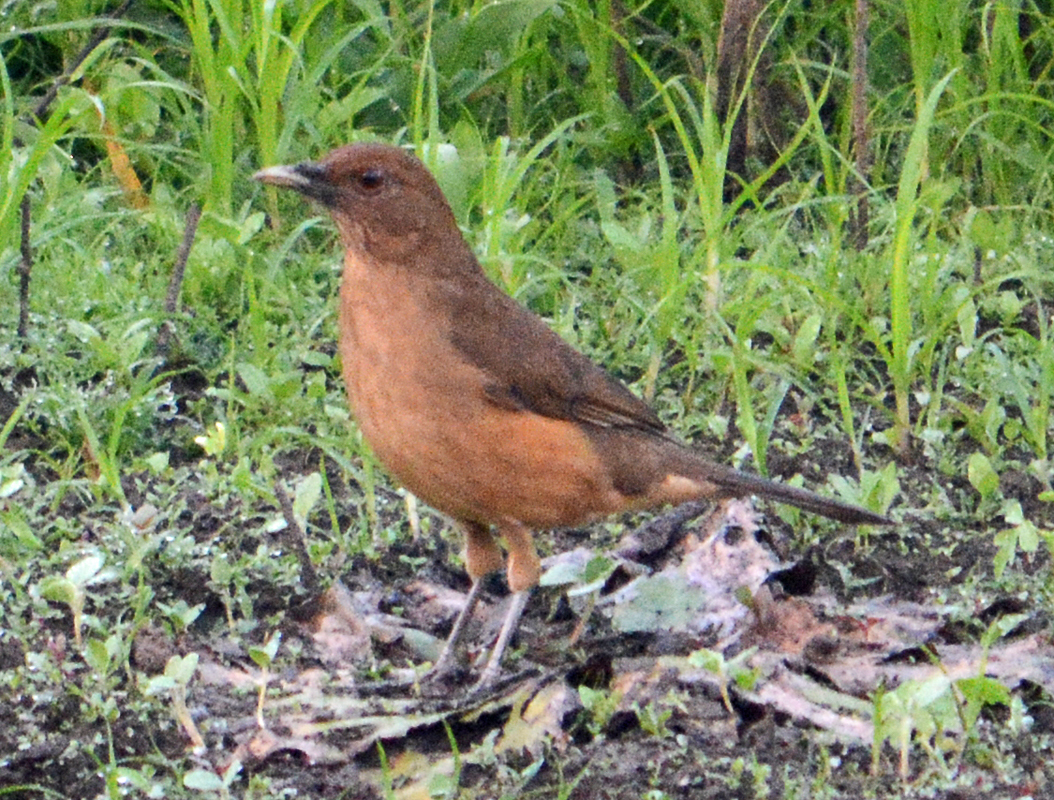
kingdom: Animalia
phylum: Chordata
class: Aves
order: Passeriformes
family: Turdidae
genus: Turdus
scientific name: Turdus grayi
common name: Clay-colored thrush
